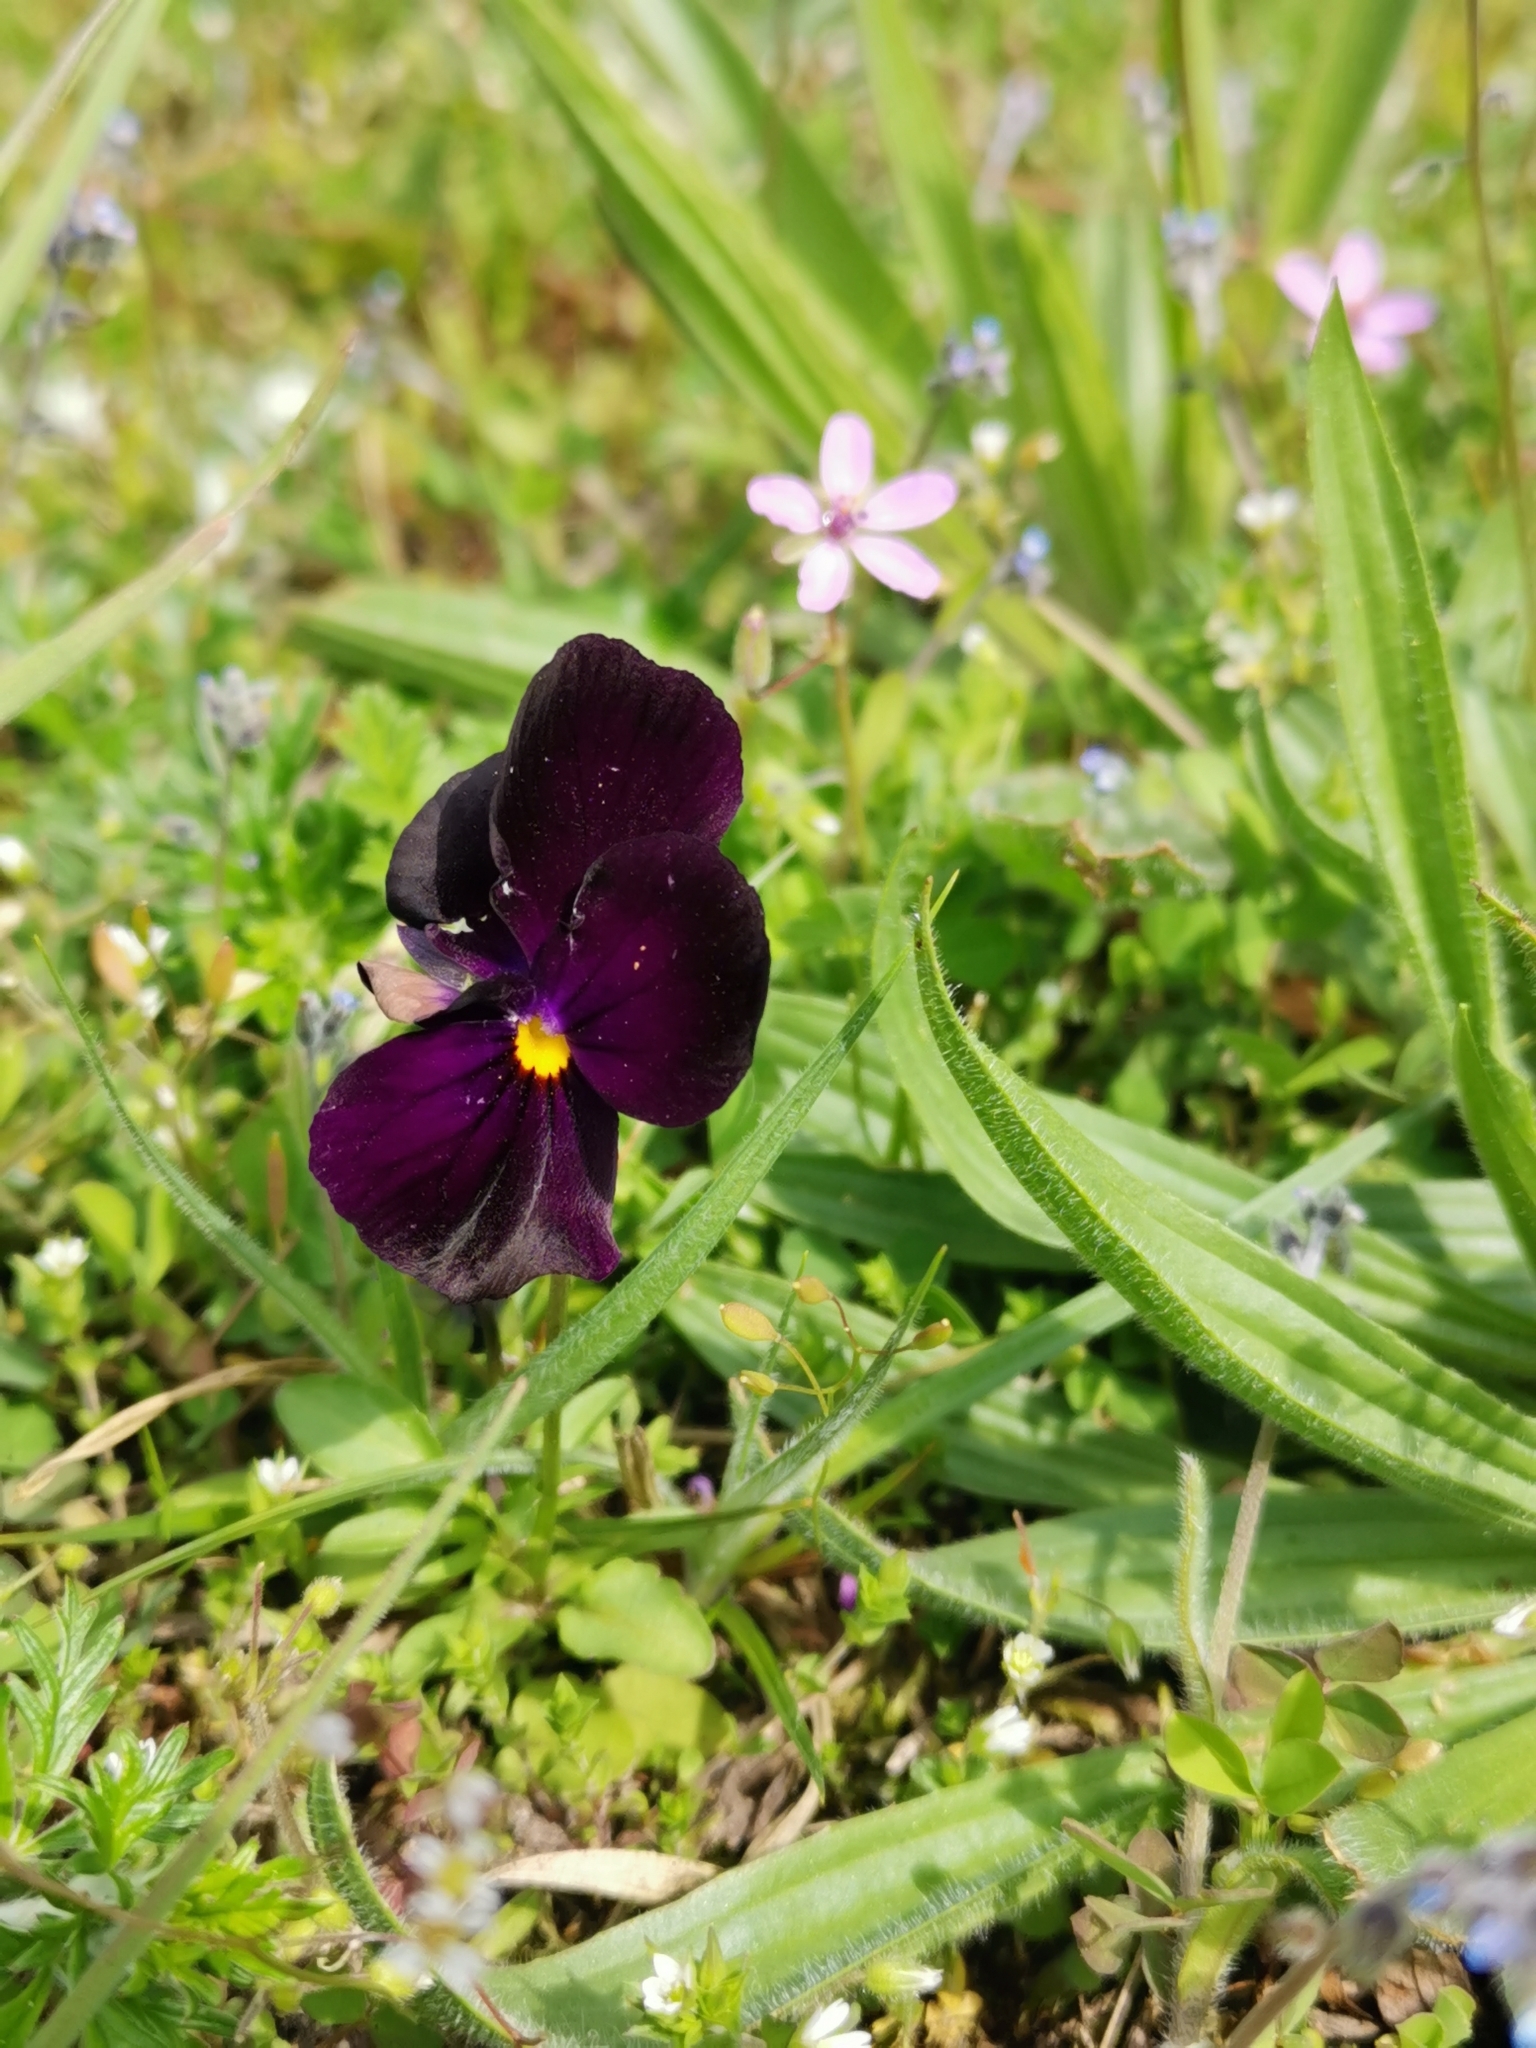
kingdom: Plantae
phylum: Tracheophyta
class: Magnoliopsida
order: Malpighiales
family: Violaceae
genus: Viola
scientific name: Viola wittrockiana
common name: Garden pansy
